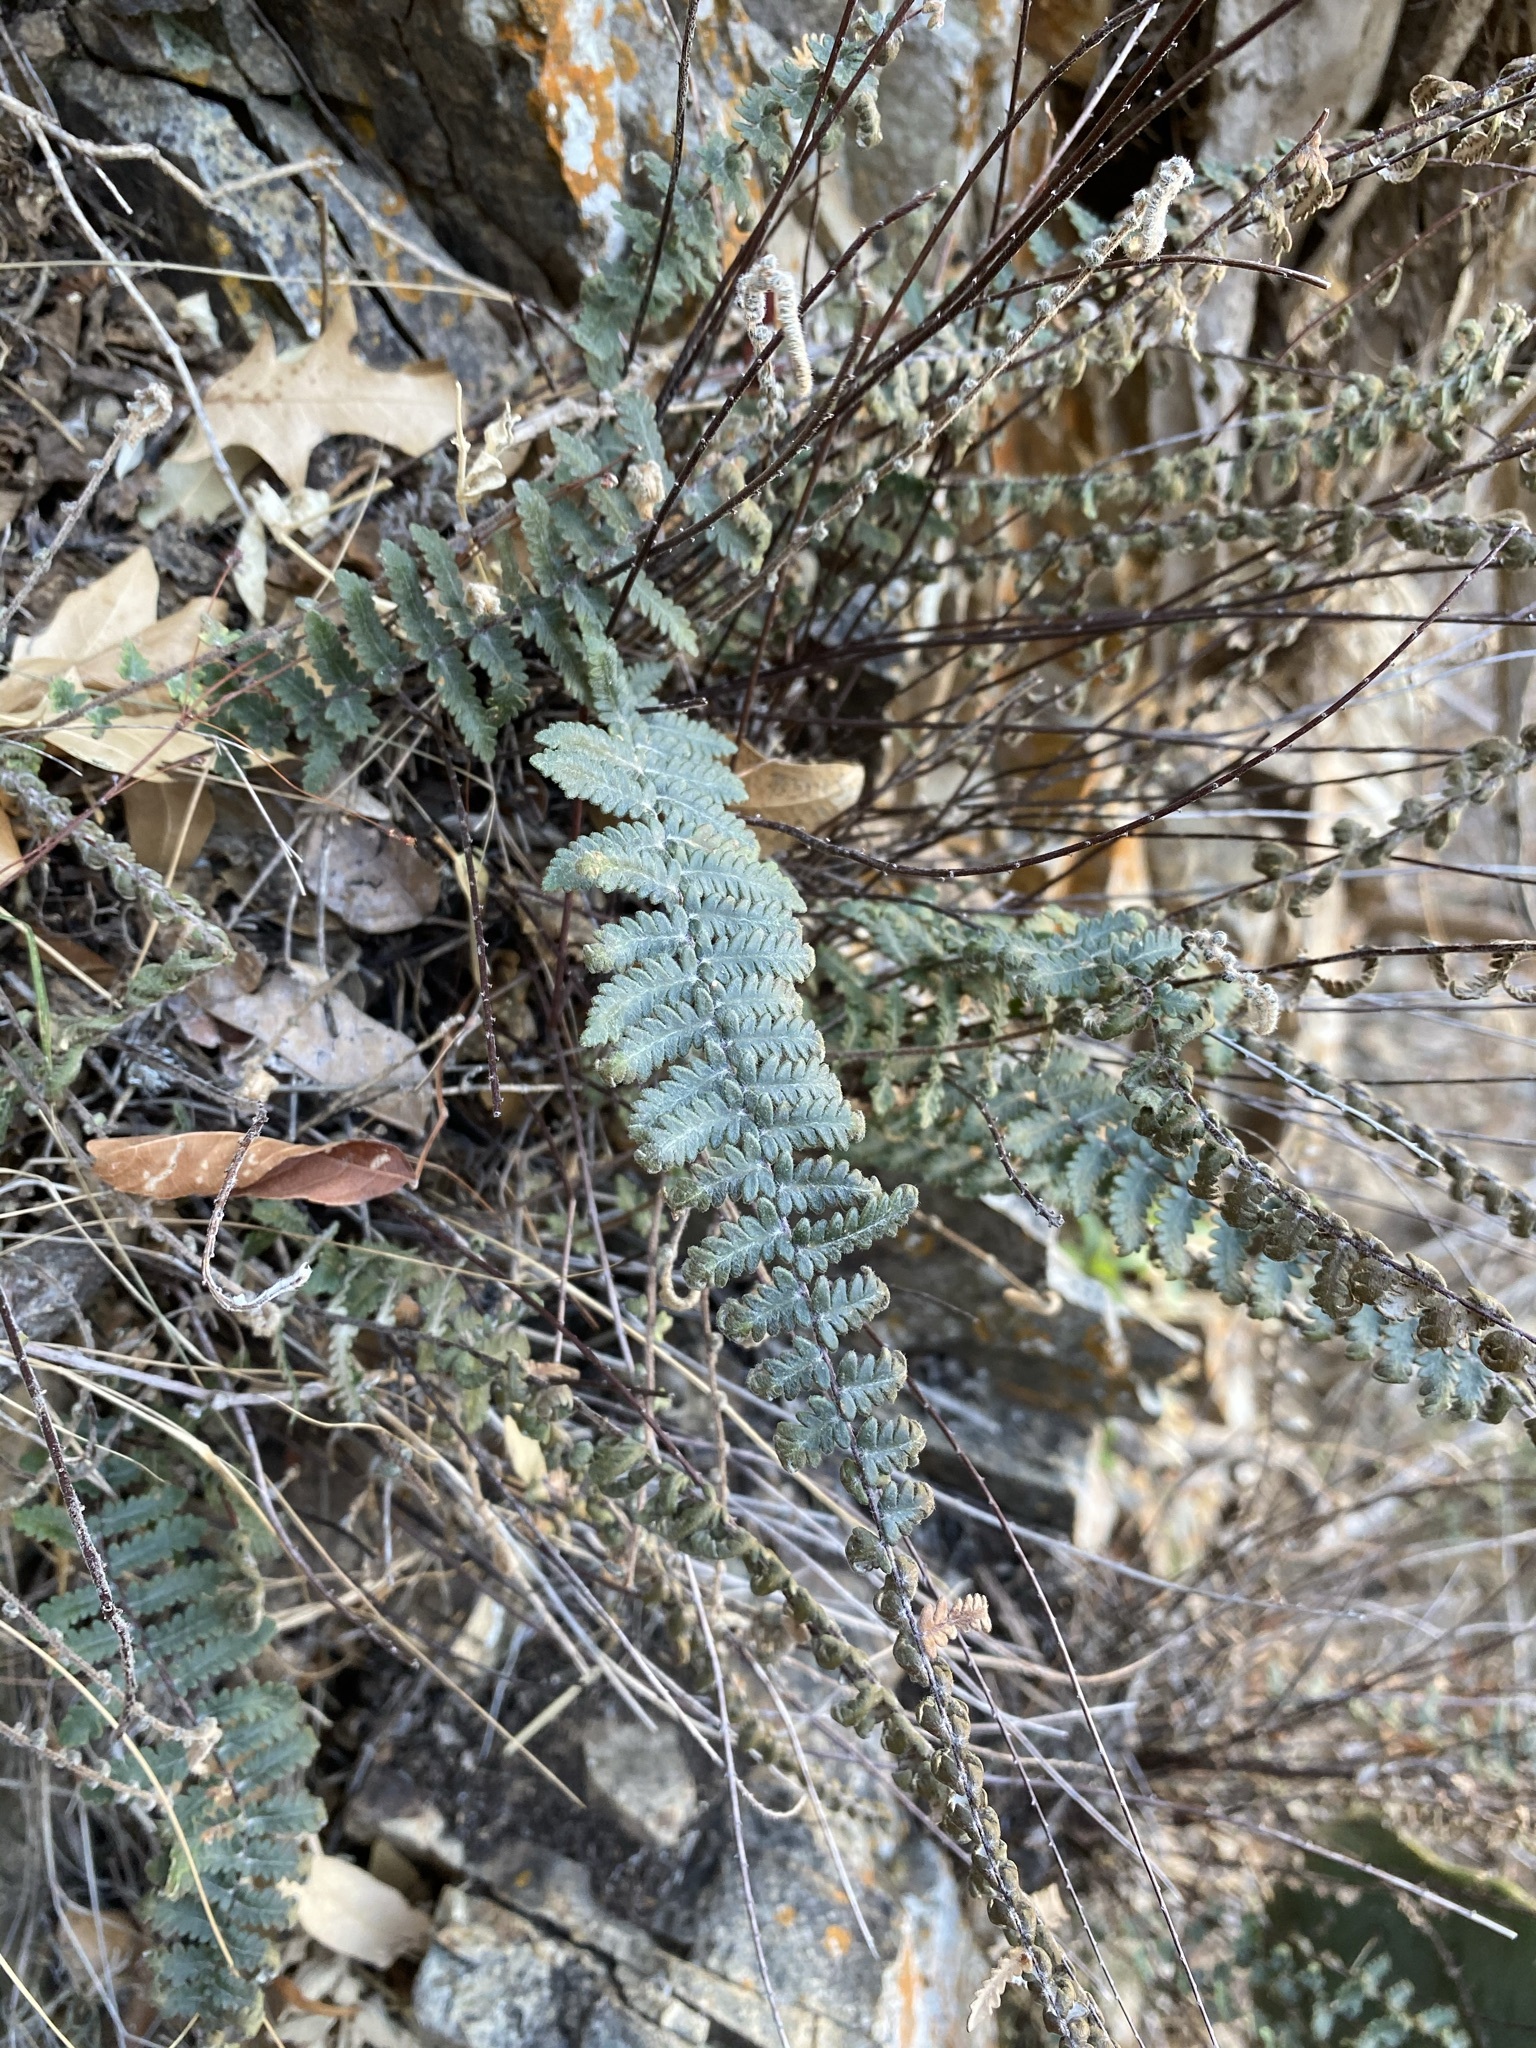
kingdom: Plantae
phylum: Tracheophyta
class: Polypodiopsida
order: Polypodiales
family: Pteridaceae
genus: Myriopteris
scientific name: Myriopteris aurea
